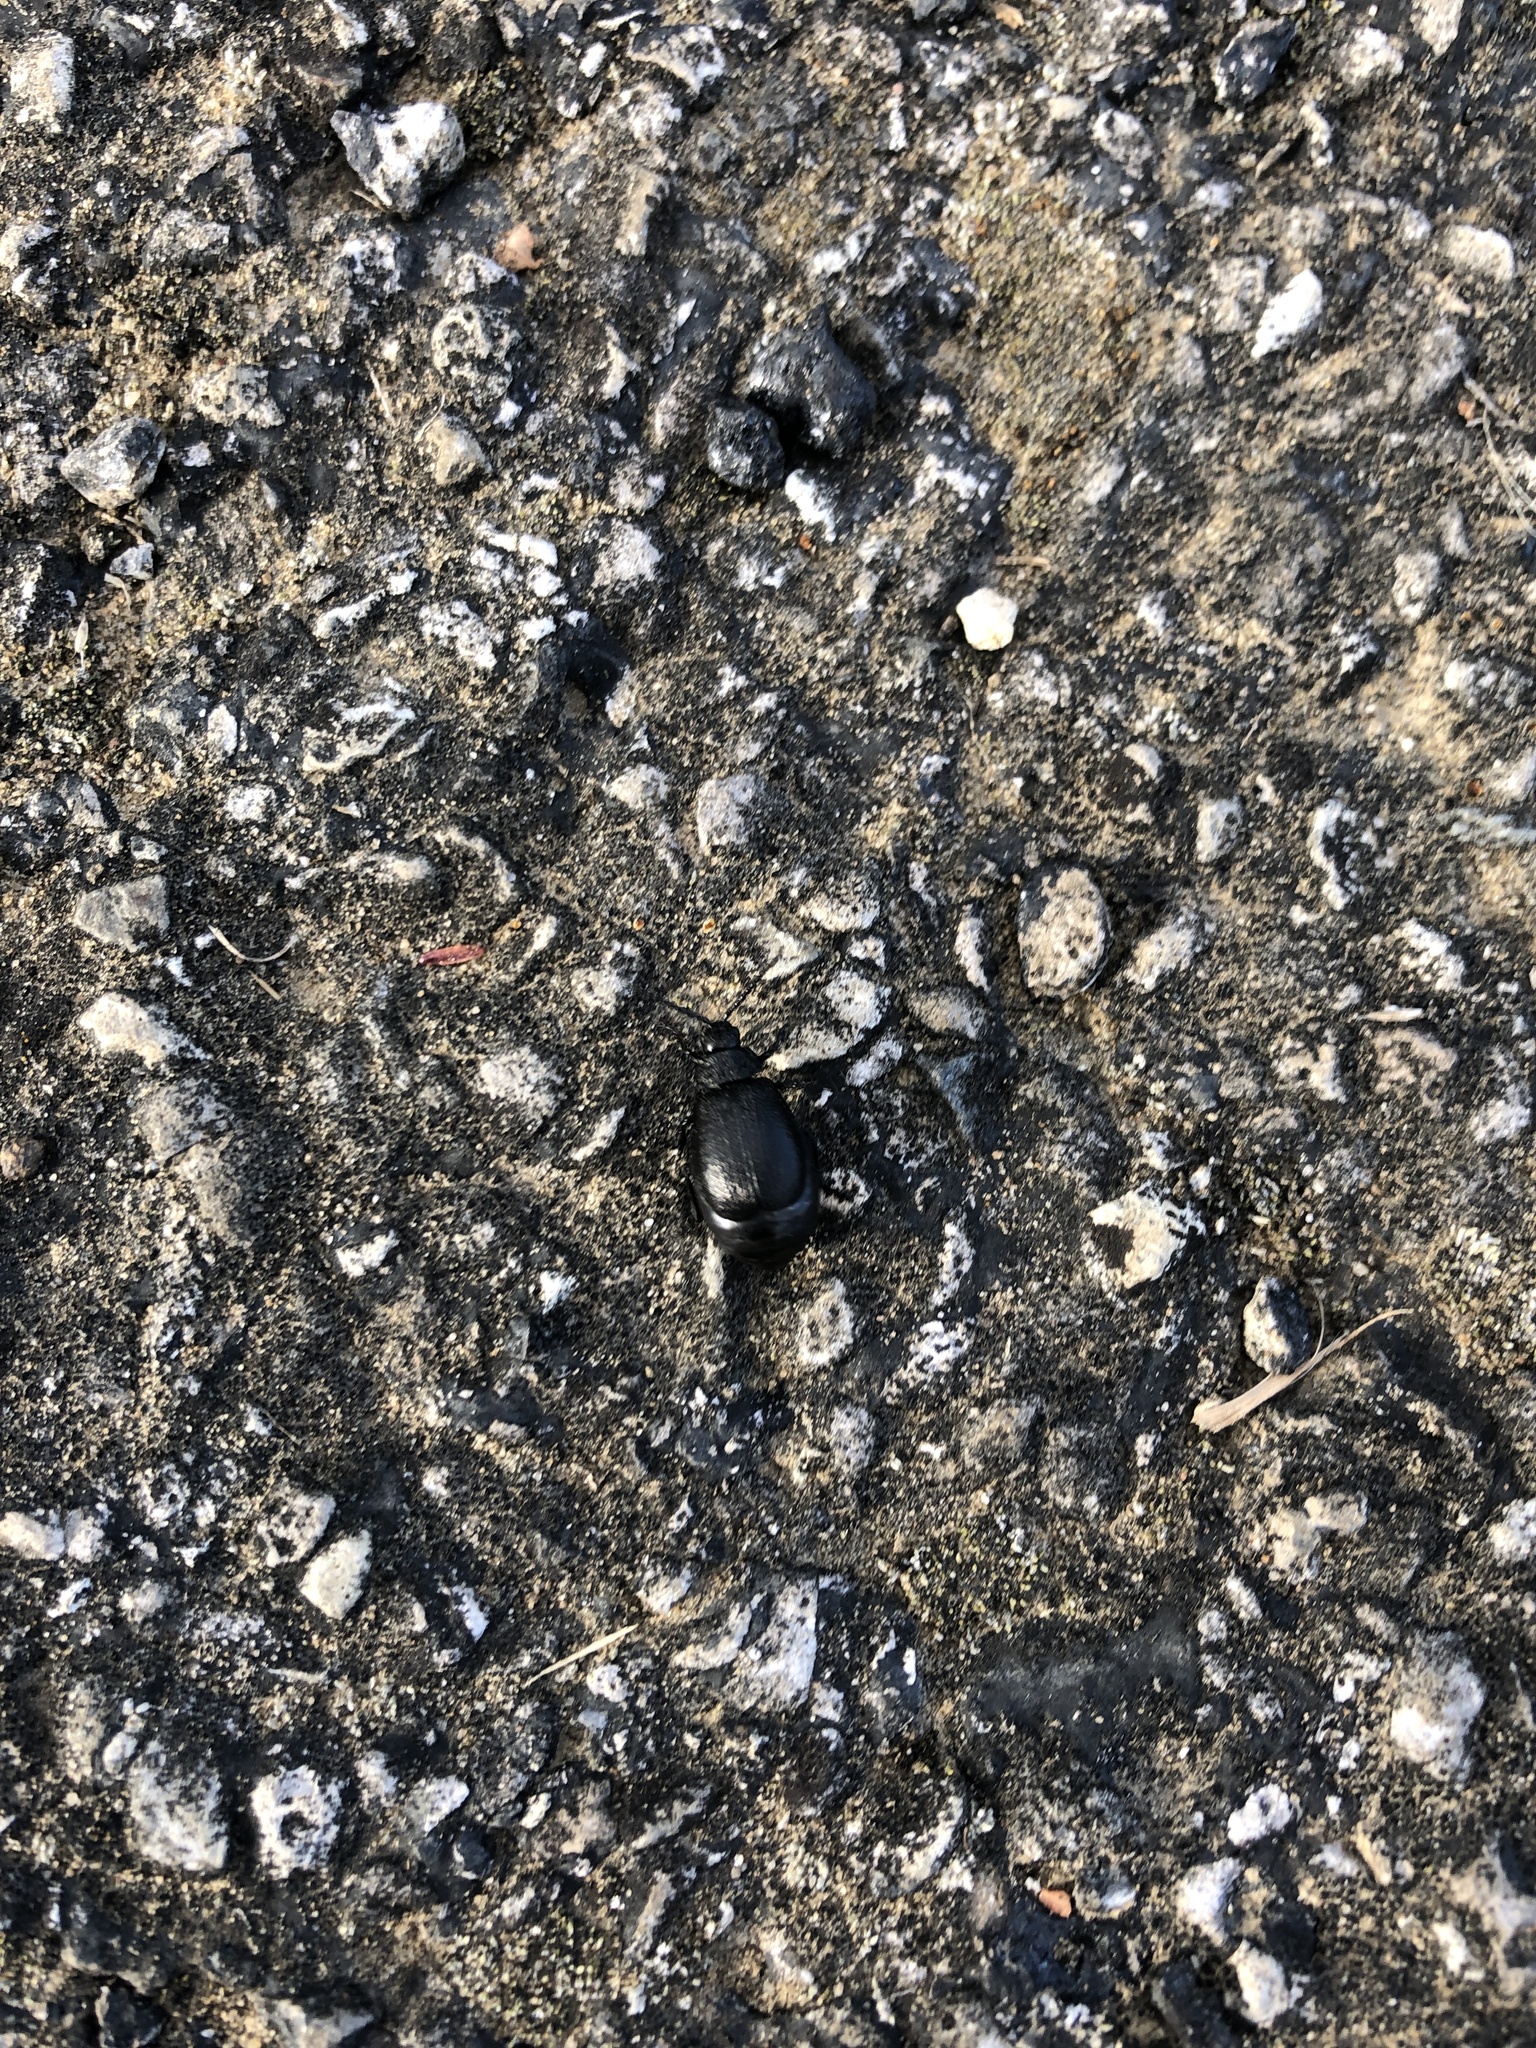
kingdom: Animalia
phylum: Arthropoda
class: Insecta
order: Coleoptera
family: Chrysomelidae
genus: Galeruca
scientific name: Galeruca tanaceti
